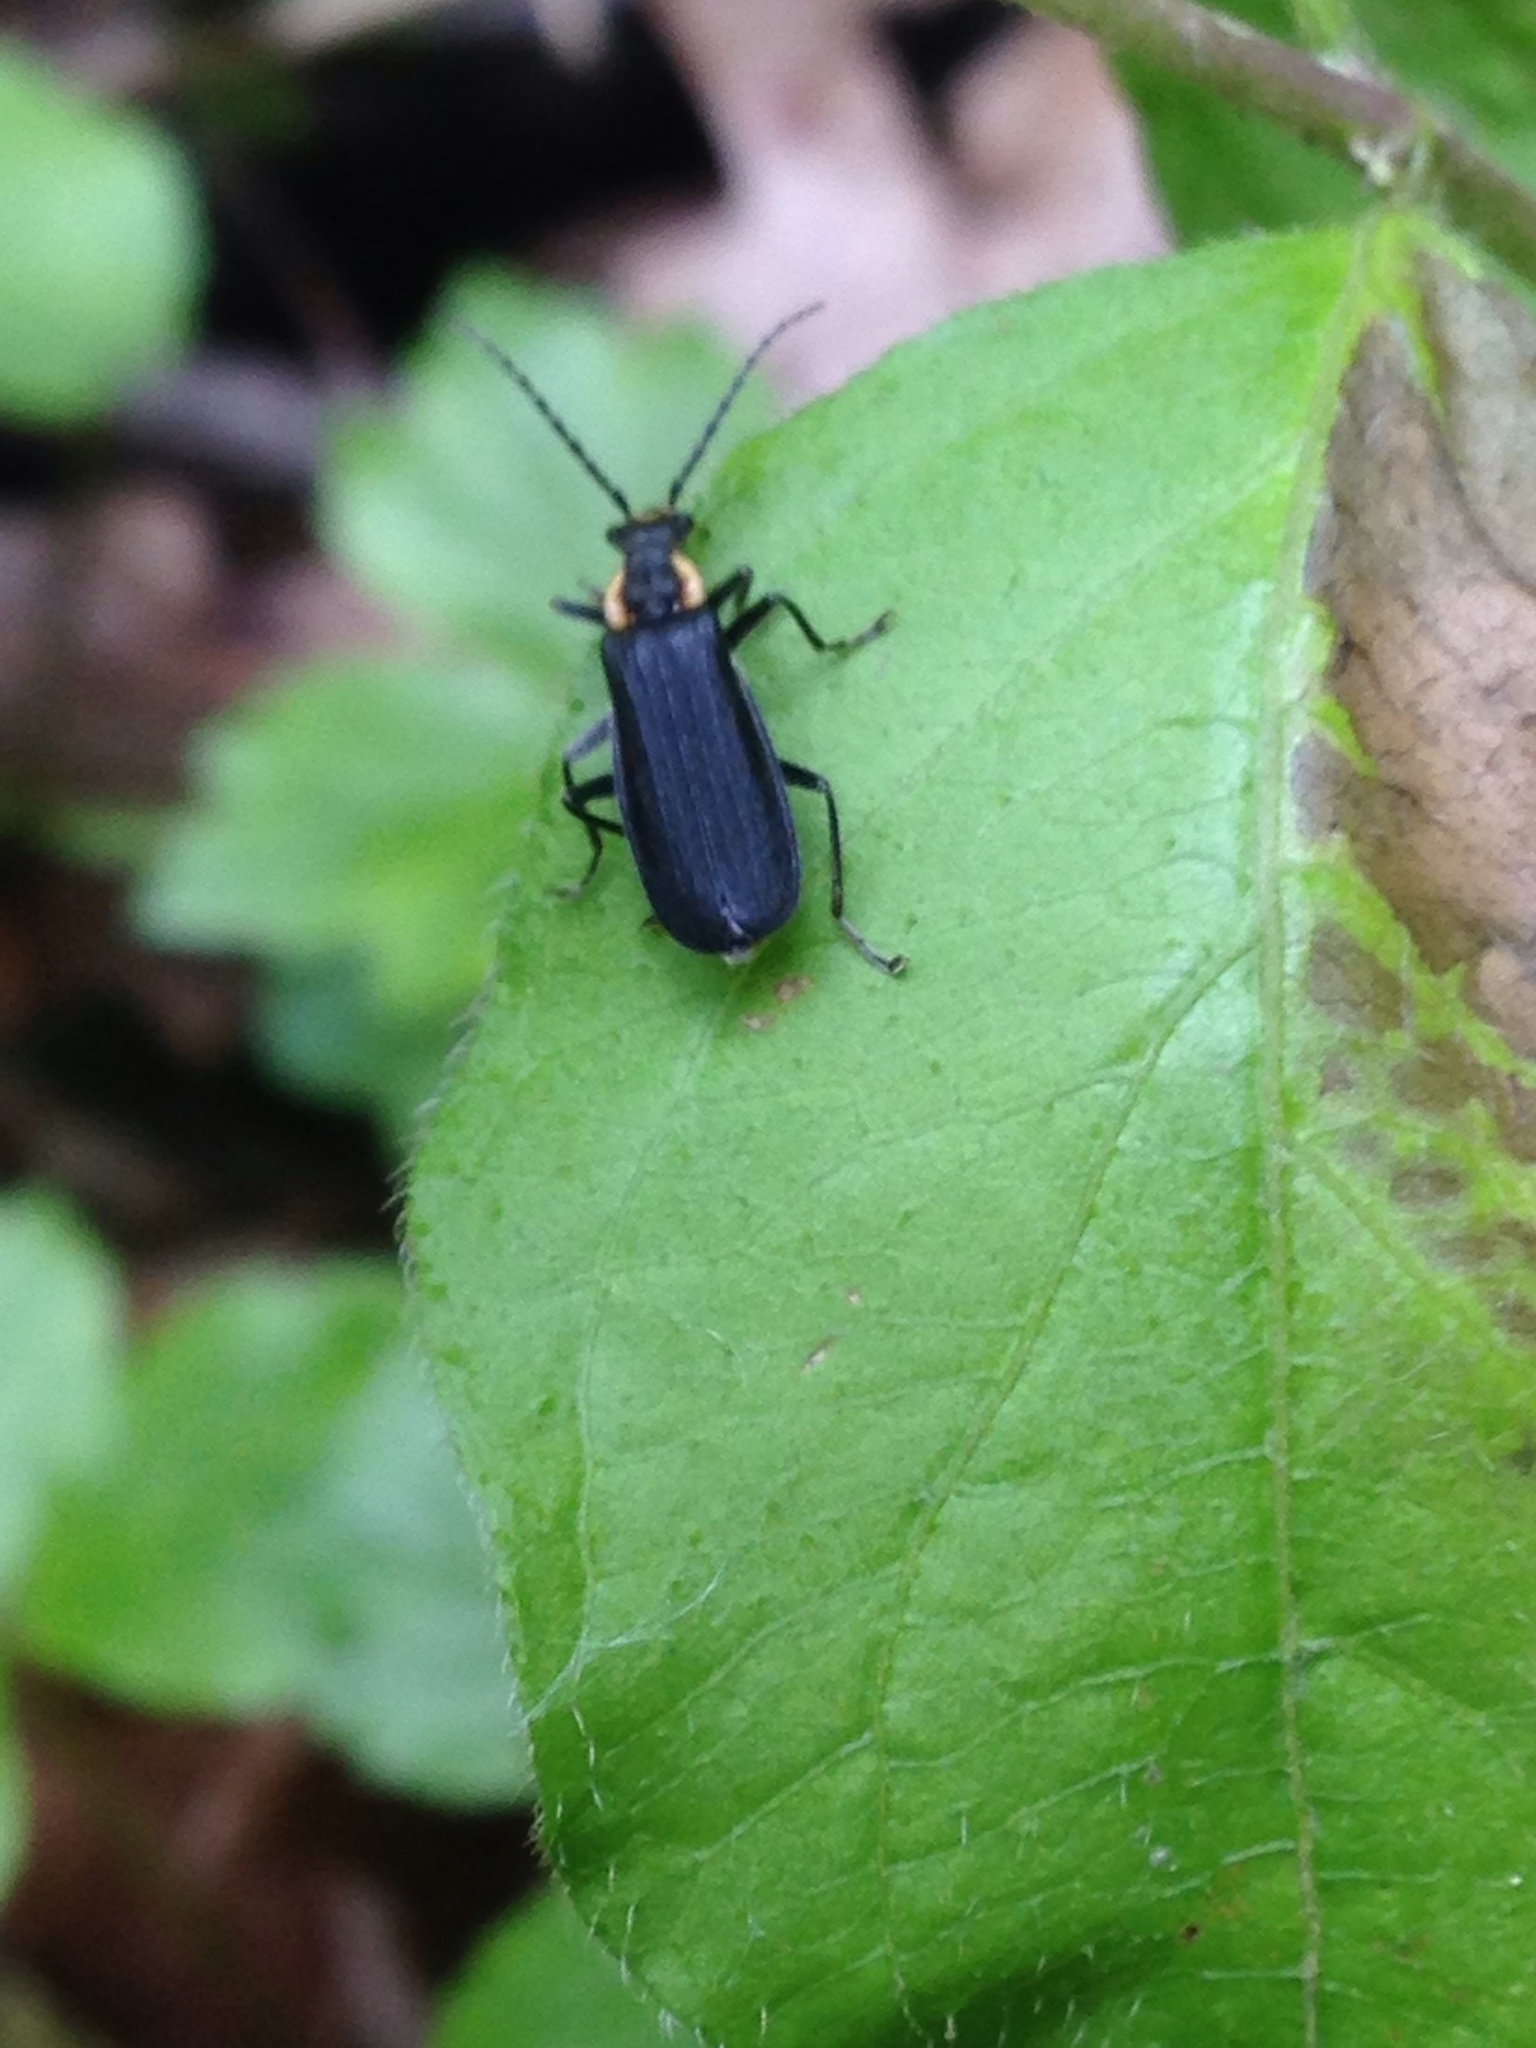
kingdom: Animalia
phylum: Arthropoda
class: Insecta
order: Coleoptera
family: Cantharidae
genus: Podabrus
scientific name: Podabrus rugosulus
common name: Wrinkled soldier beetle
